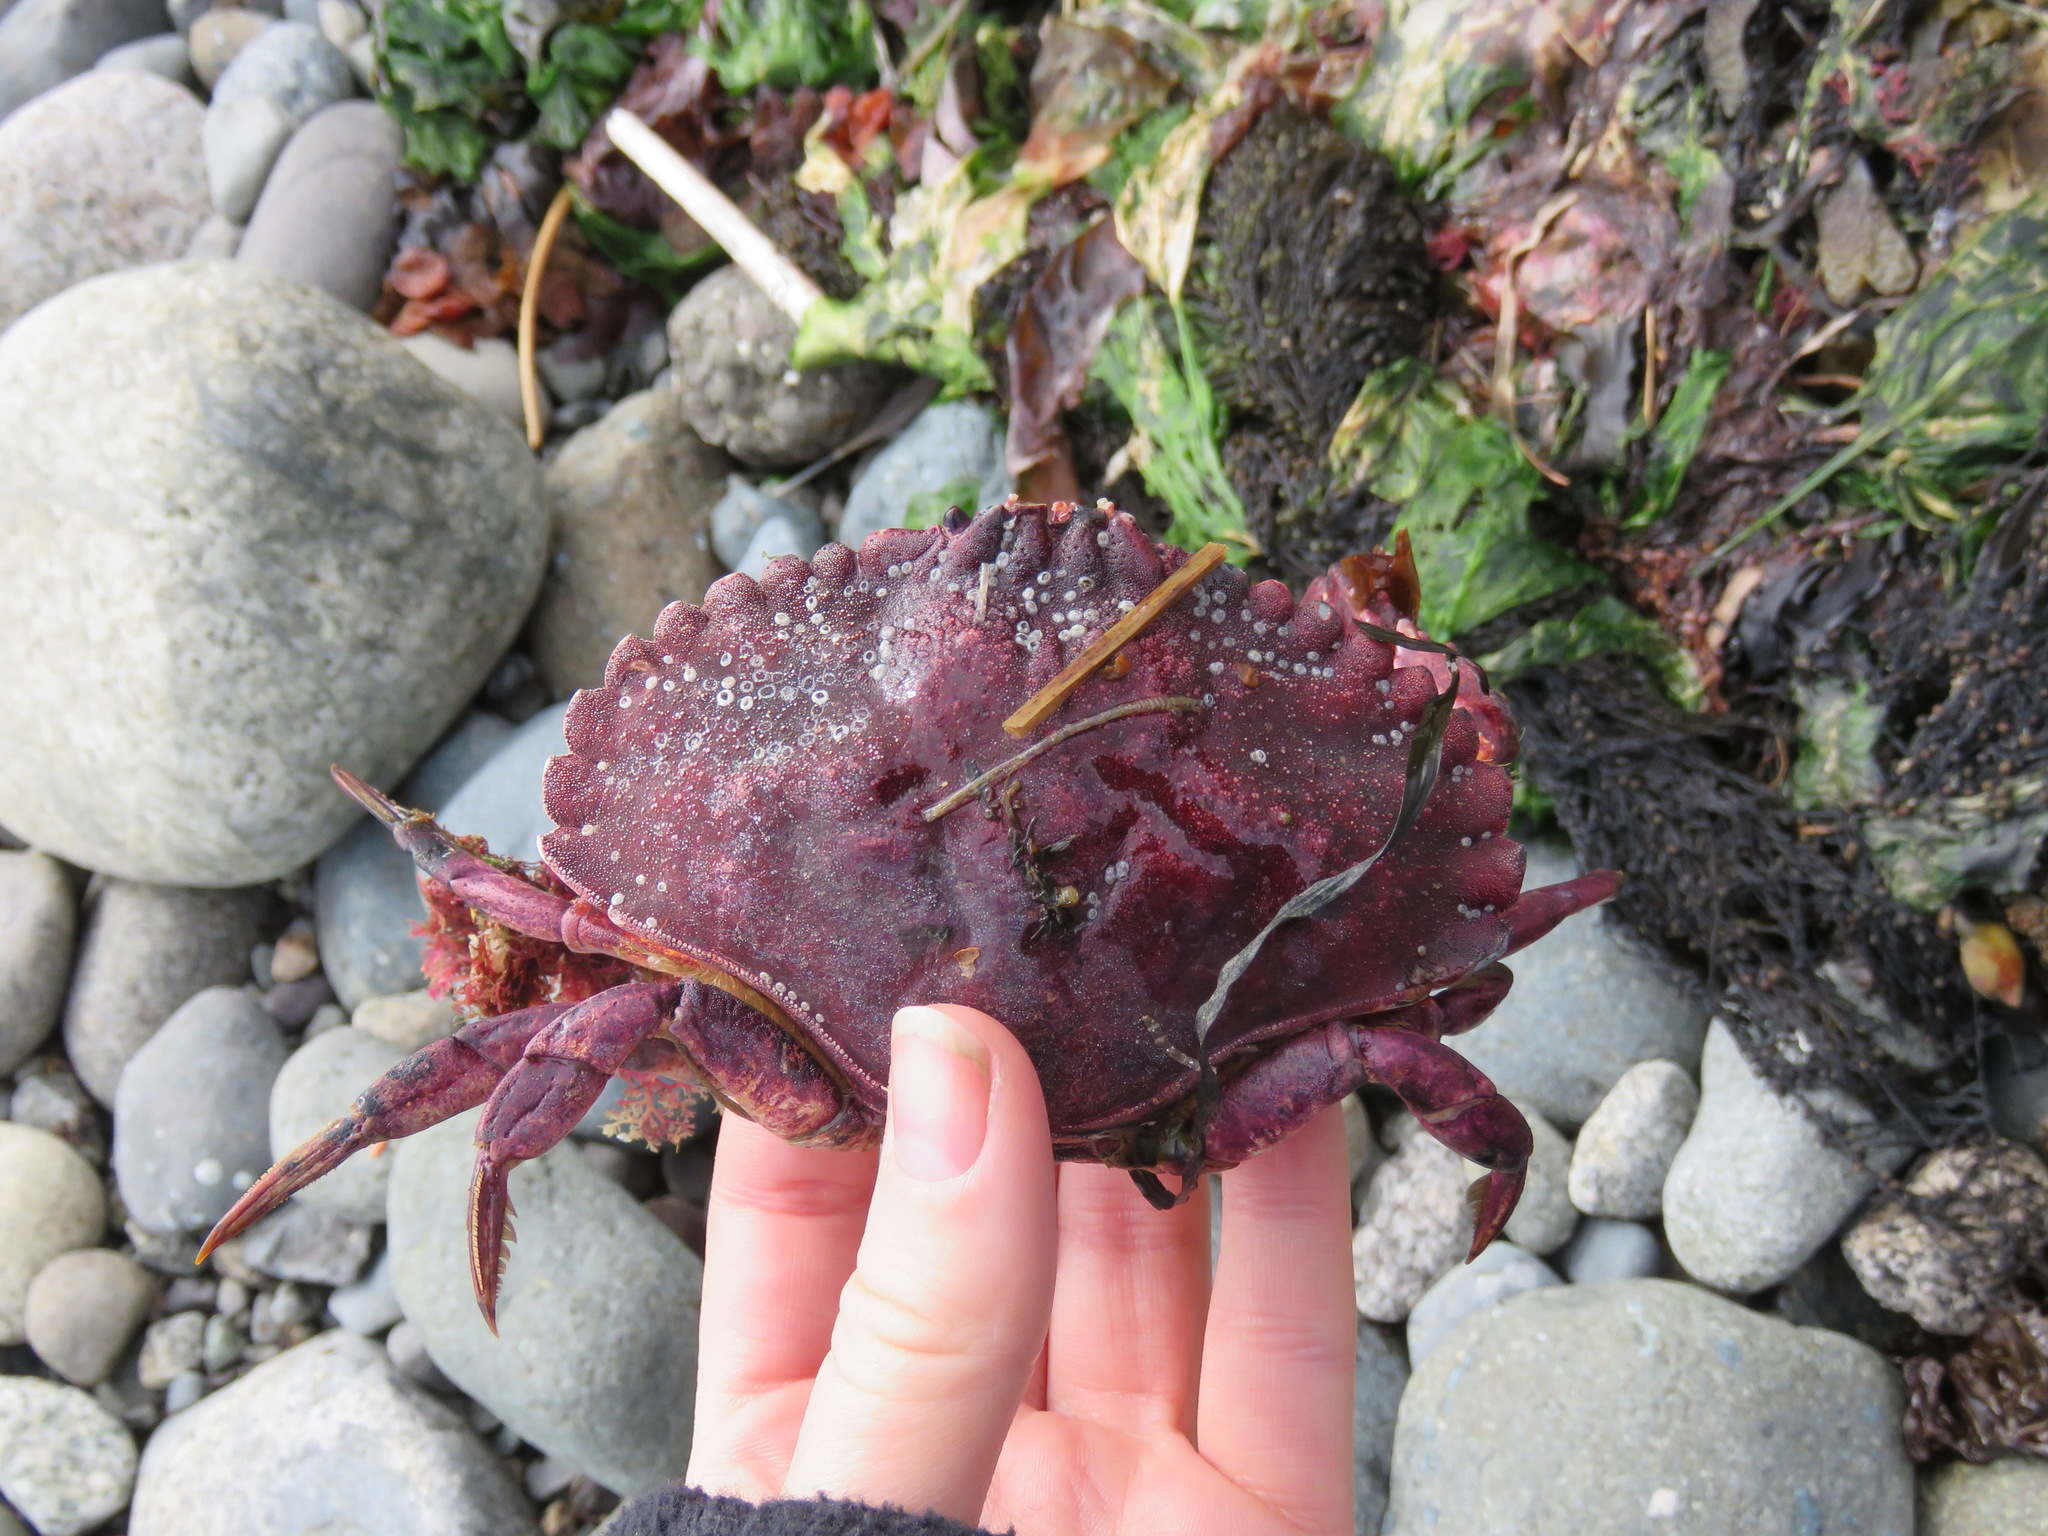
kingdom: Animalia
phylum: Arthropoda
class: Malacostraca
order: Decapoda
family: Cancridae
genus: Cancer
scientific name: Cancer productus
